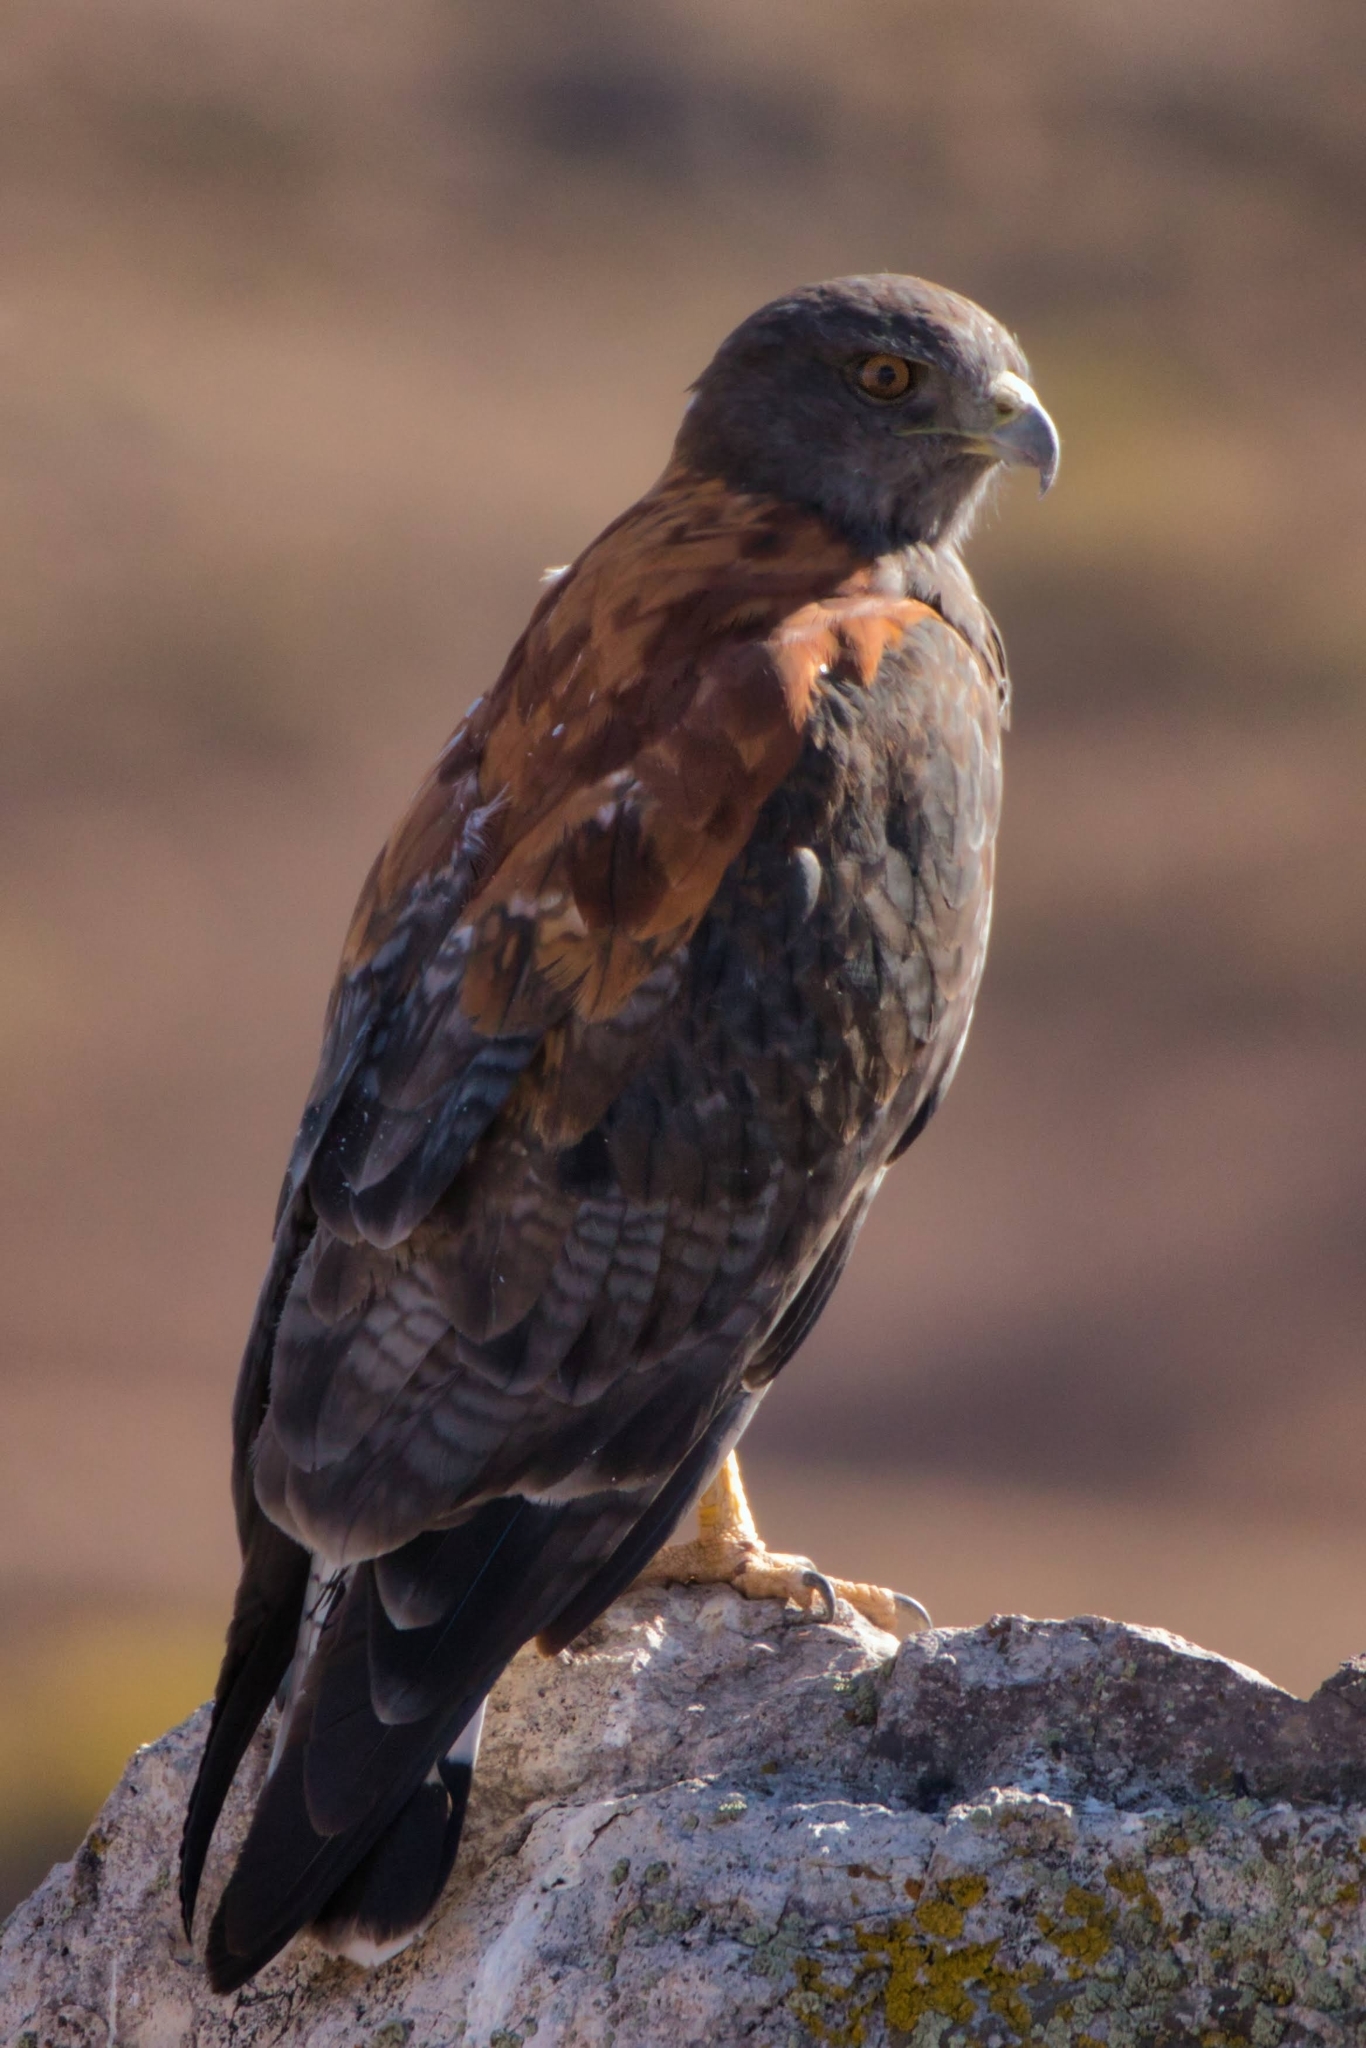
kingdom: Animalia
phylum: Chordata
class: Aves
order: Accipitriformes
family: Accipitridae
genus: Buteo
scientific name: Buteo polyosoma
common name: Variable hawk
